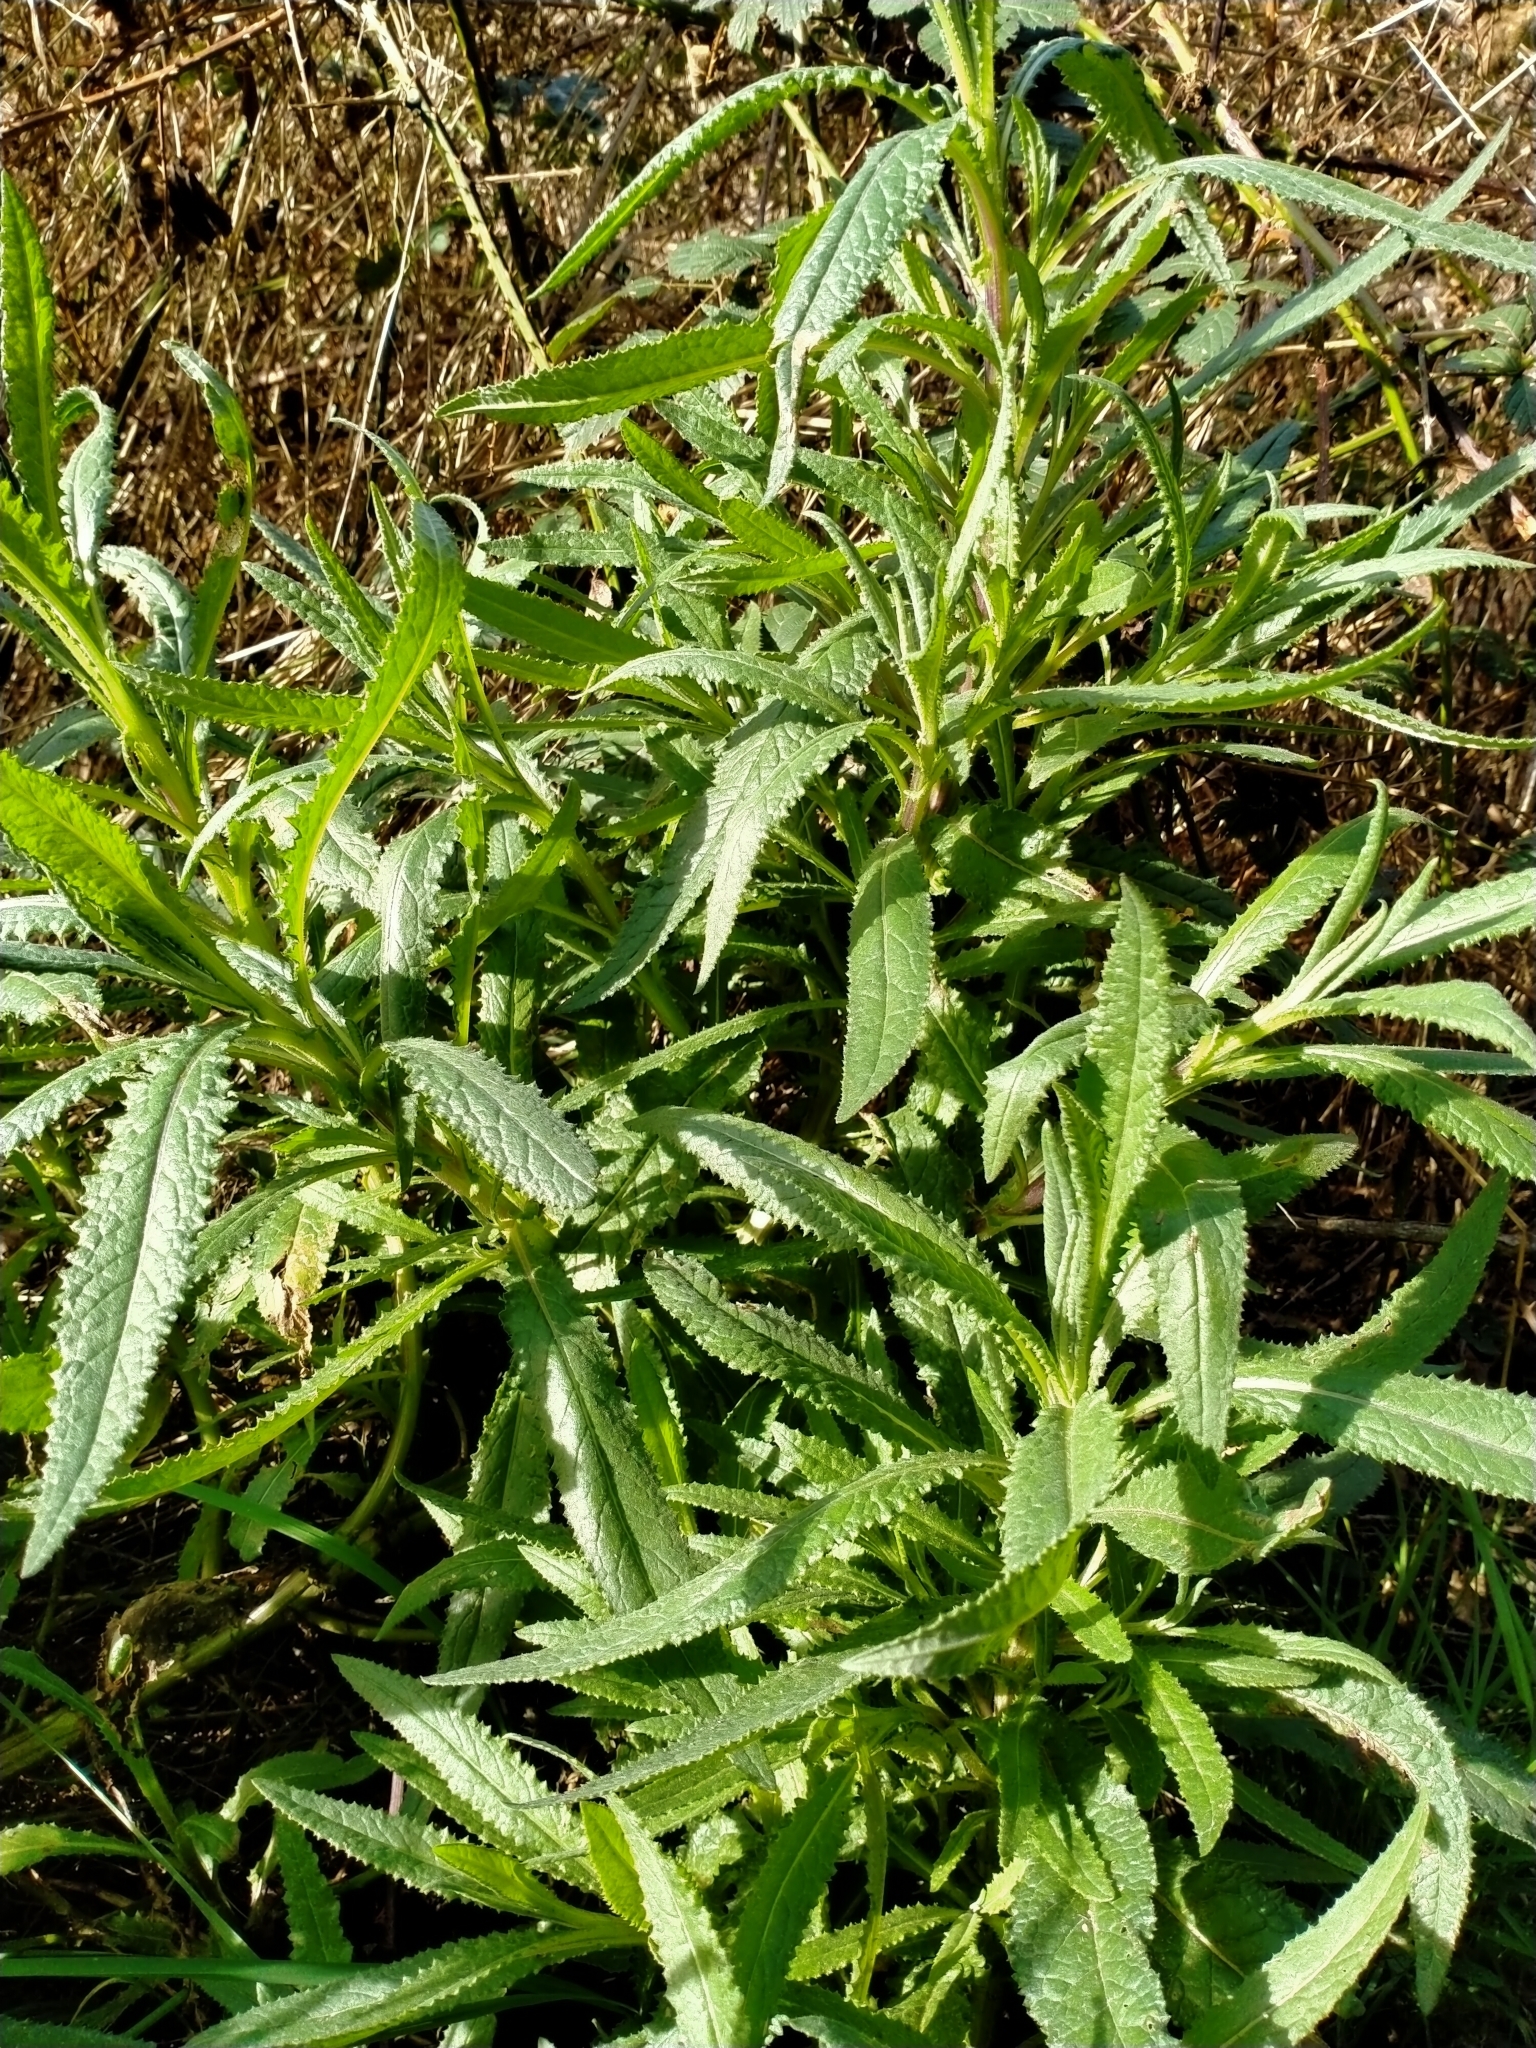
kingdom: Plantae
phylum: Tracheophyta
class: Magnoliopsida
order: Asterales
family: Asteraceae
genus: Senecio
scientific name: Senecio minimus
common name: Toothed fireweed
